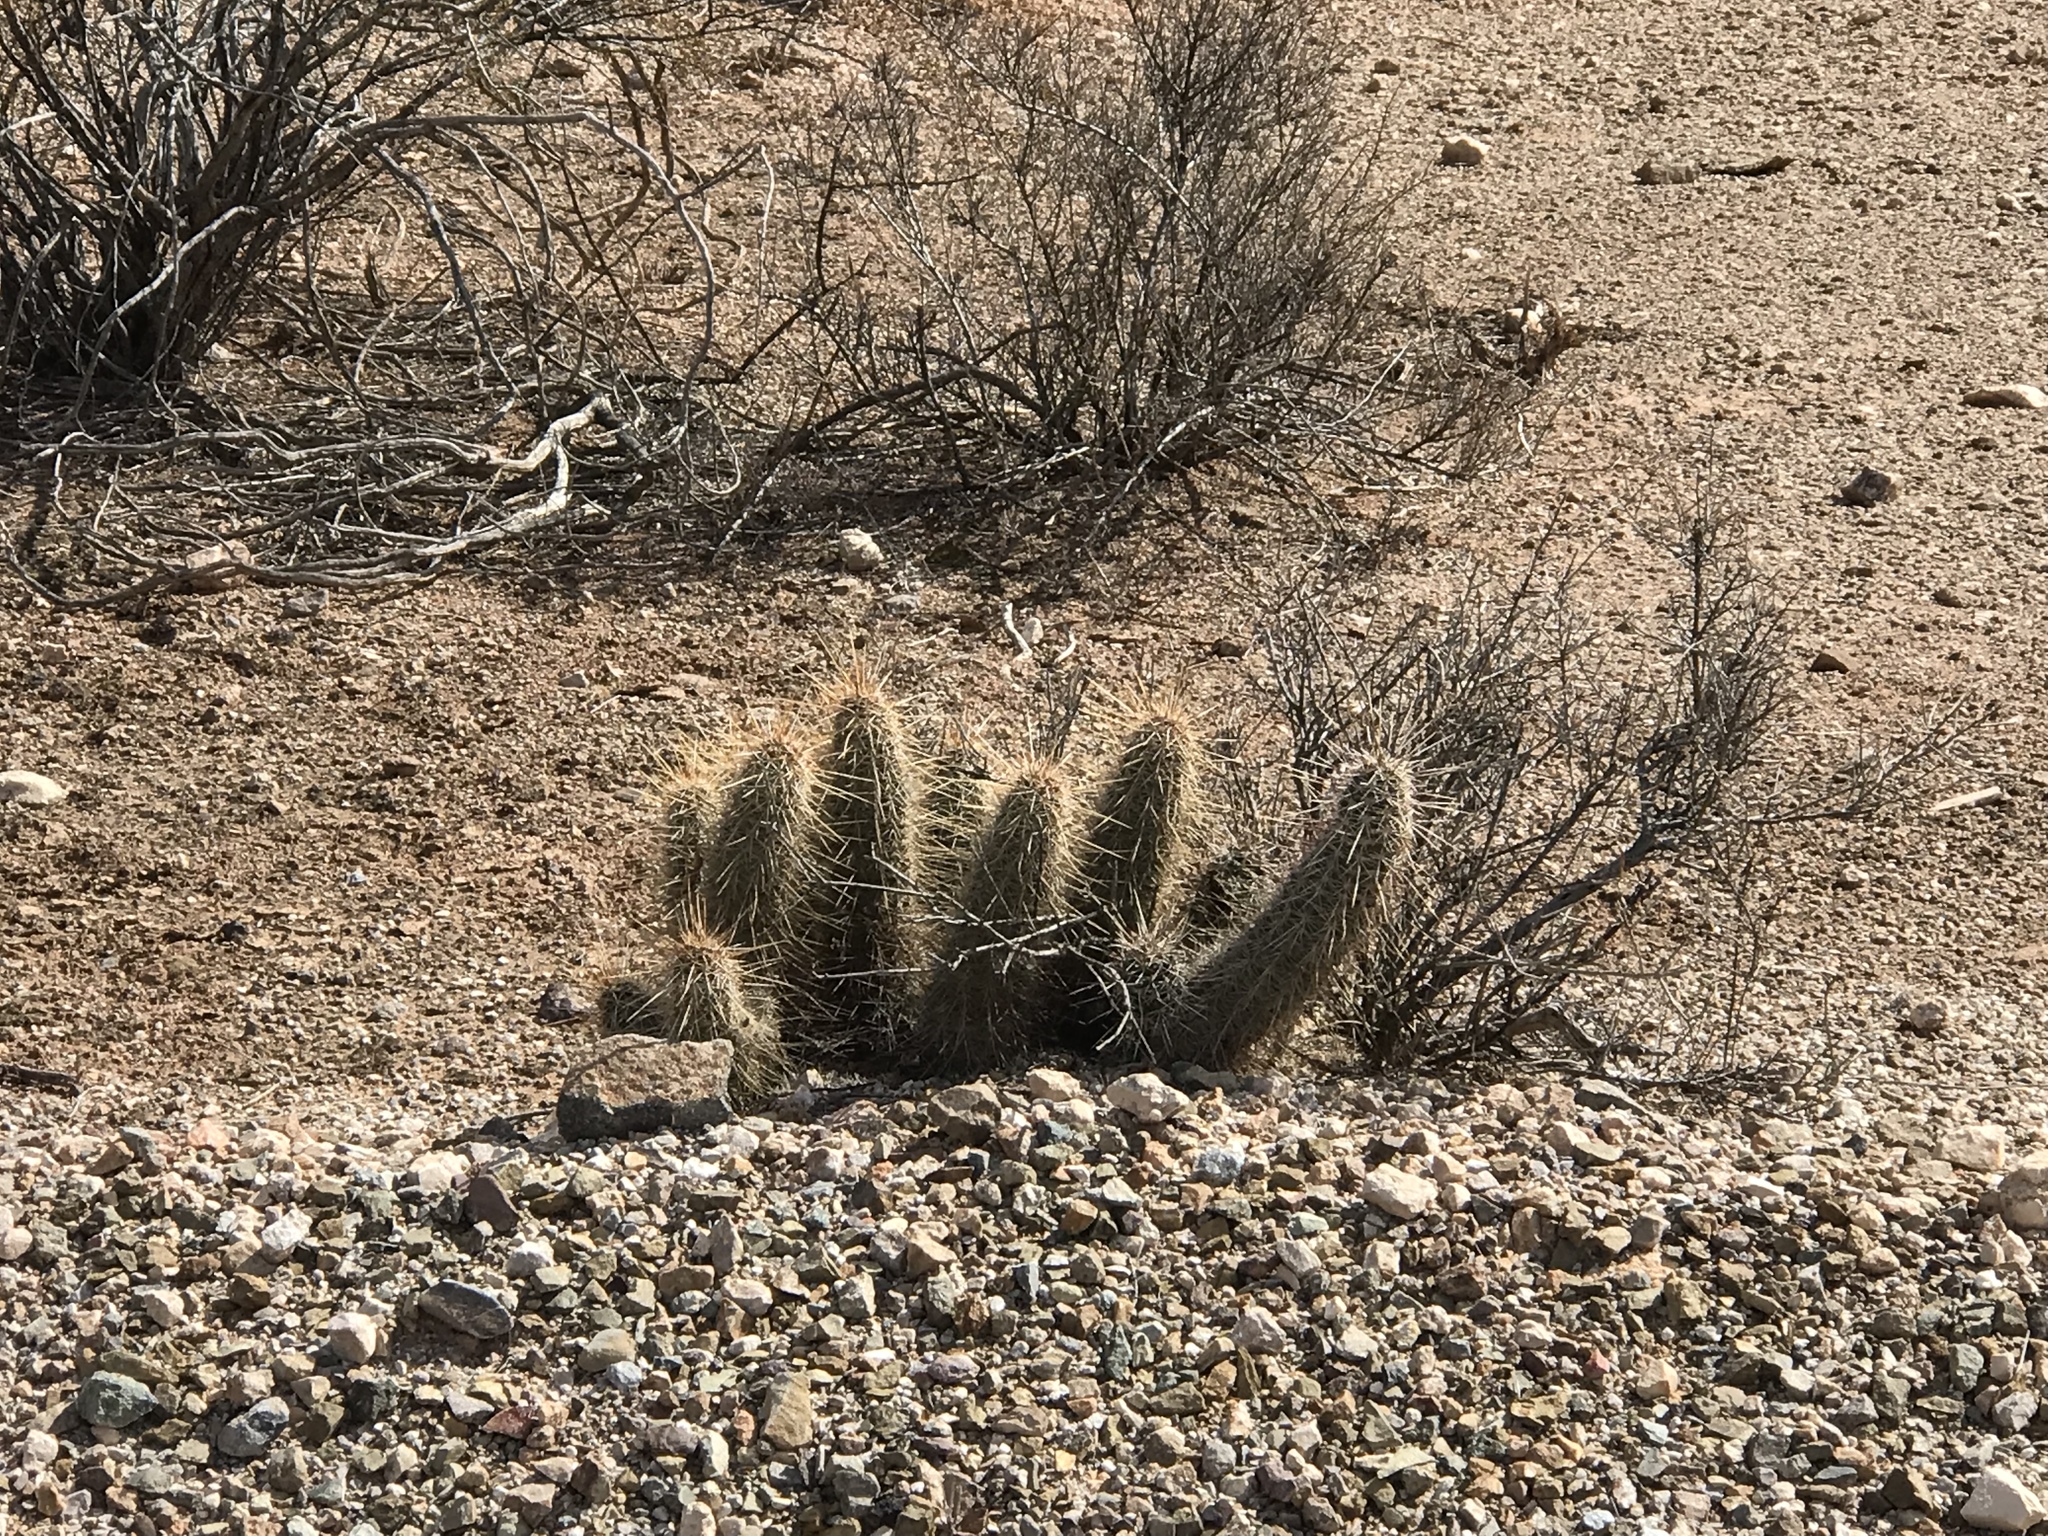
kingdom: Plantae
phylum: Tracheophyta
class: Magnoliopsida
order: Caryophyllales
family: Cactaceae
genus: Echinocereus
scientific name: Echinocereus engelmannii
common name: Engelmann's hedgehog cactus
